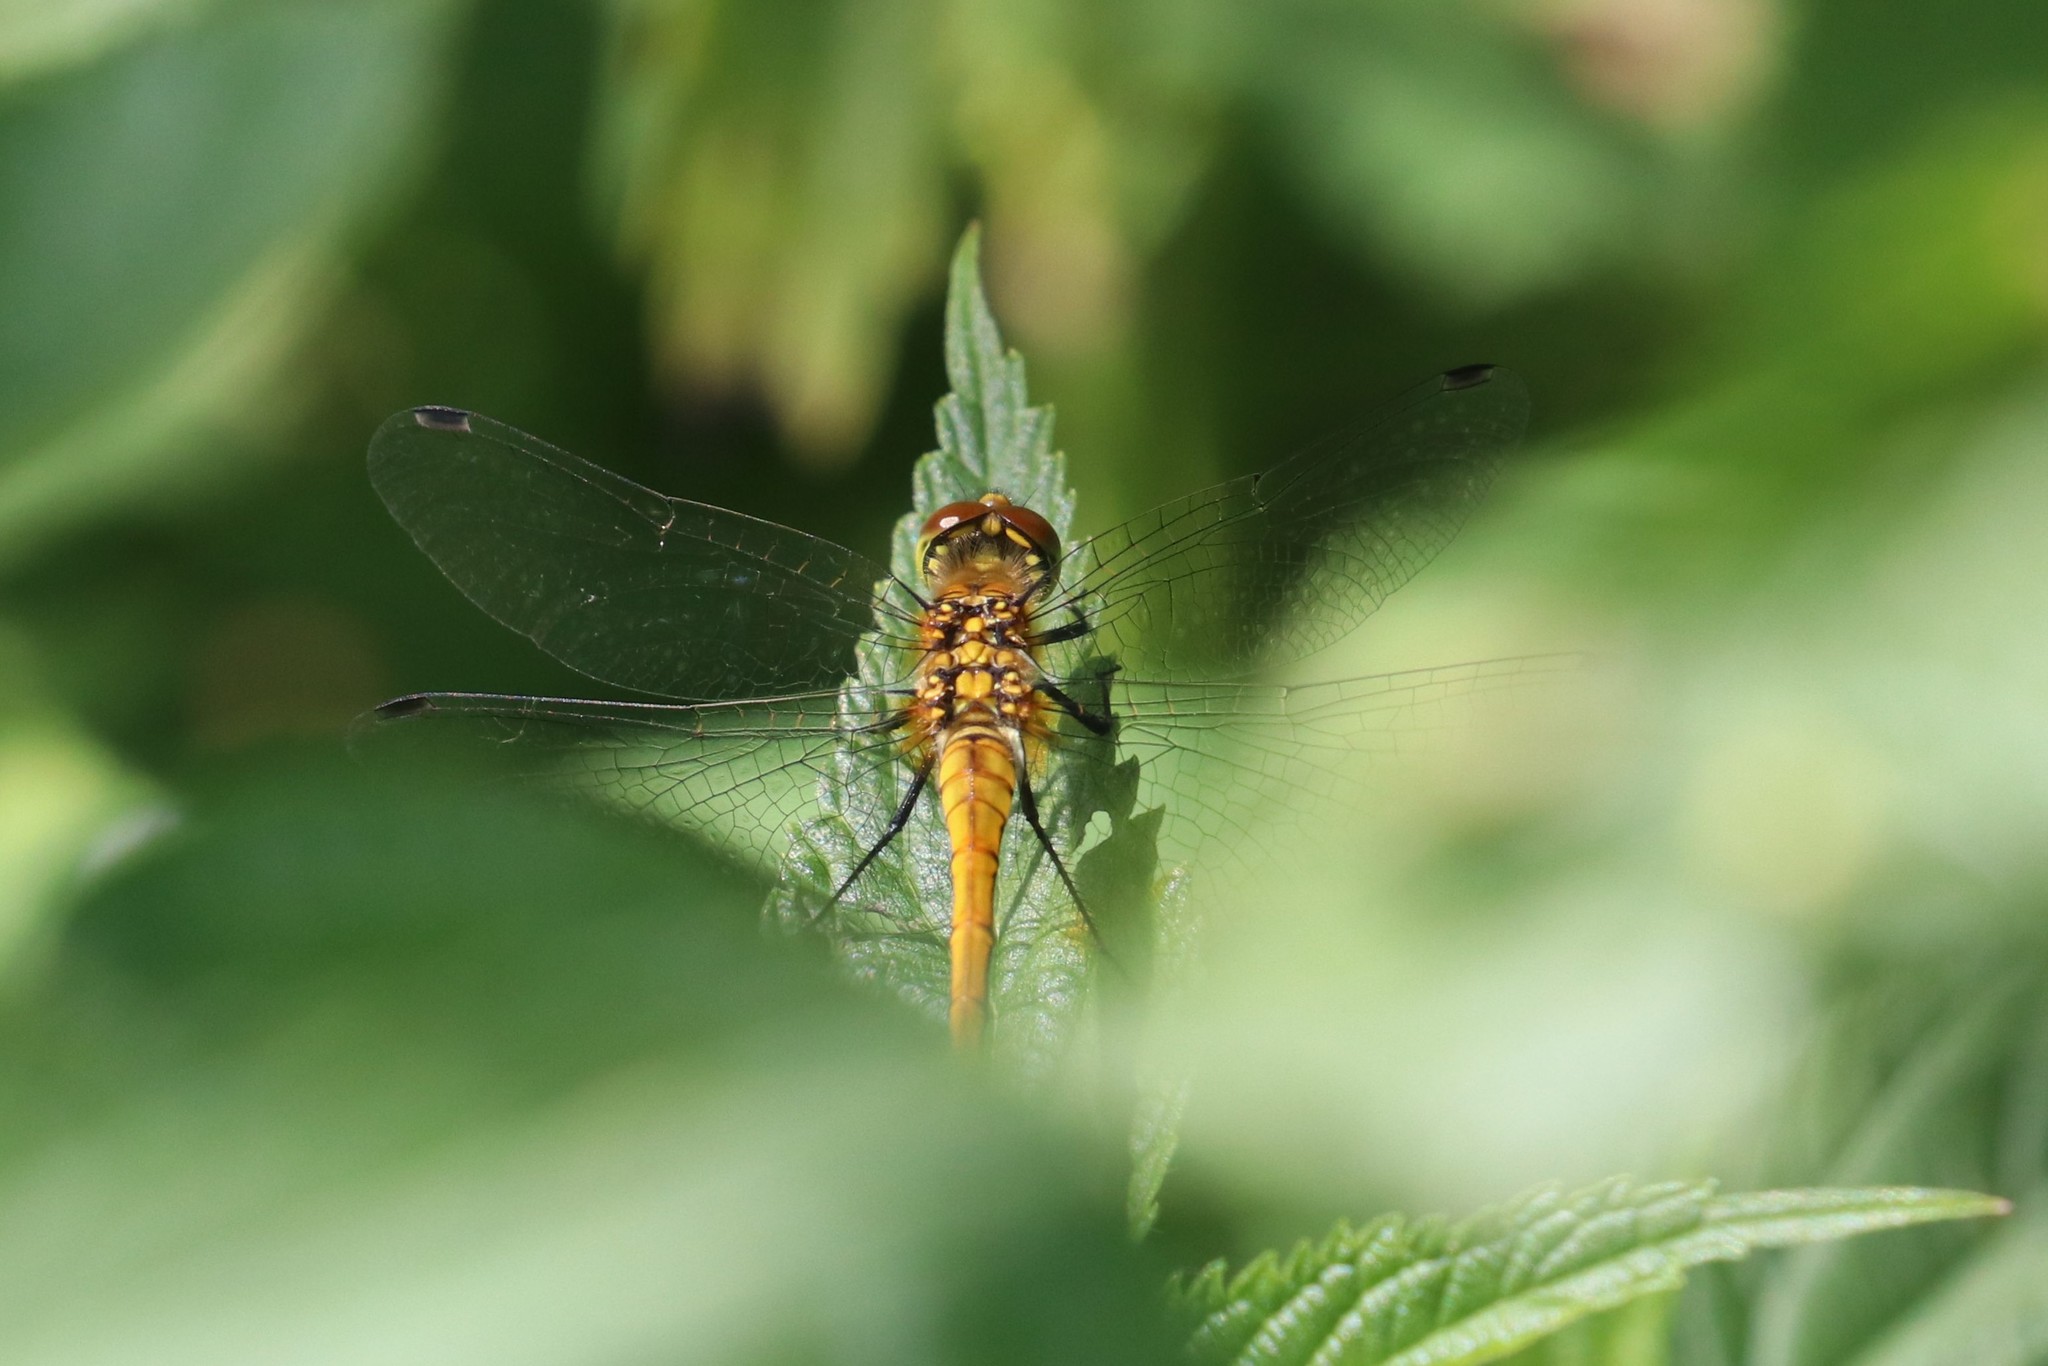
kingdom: Animalia
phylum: Arthropoda
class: Insecta
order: Odonata
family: Libellulidae
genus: Sympetrum
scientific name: Sympetrum sanguineum
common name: Ruddy darter
